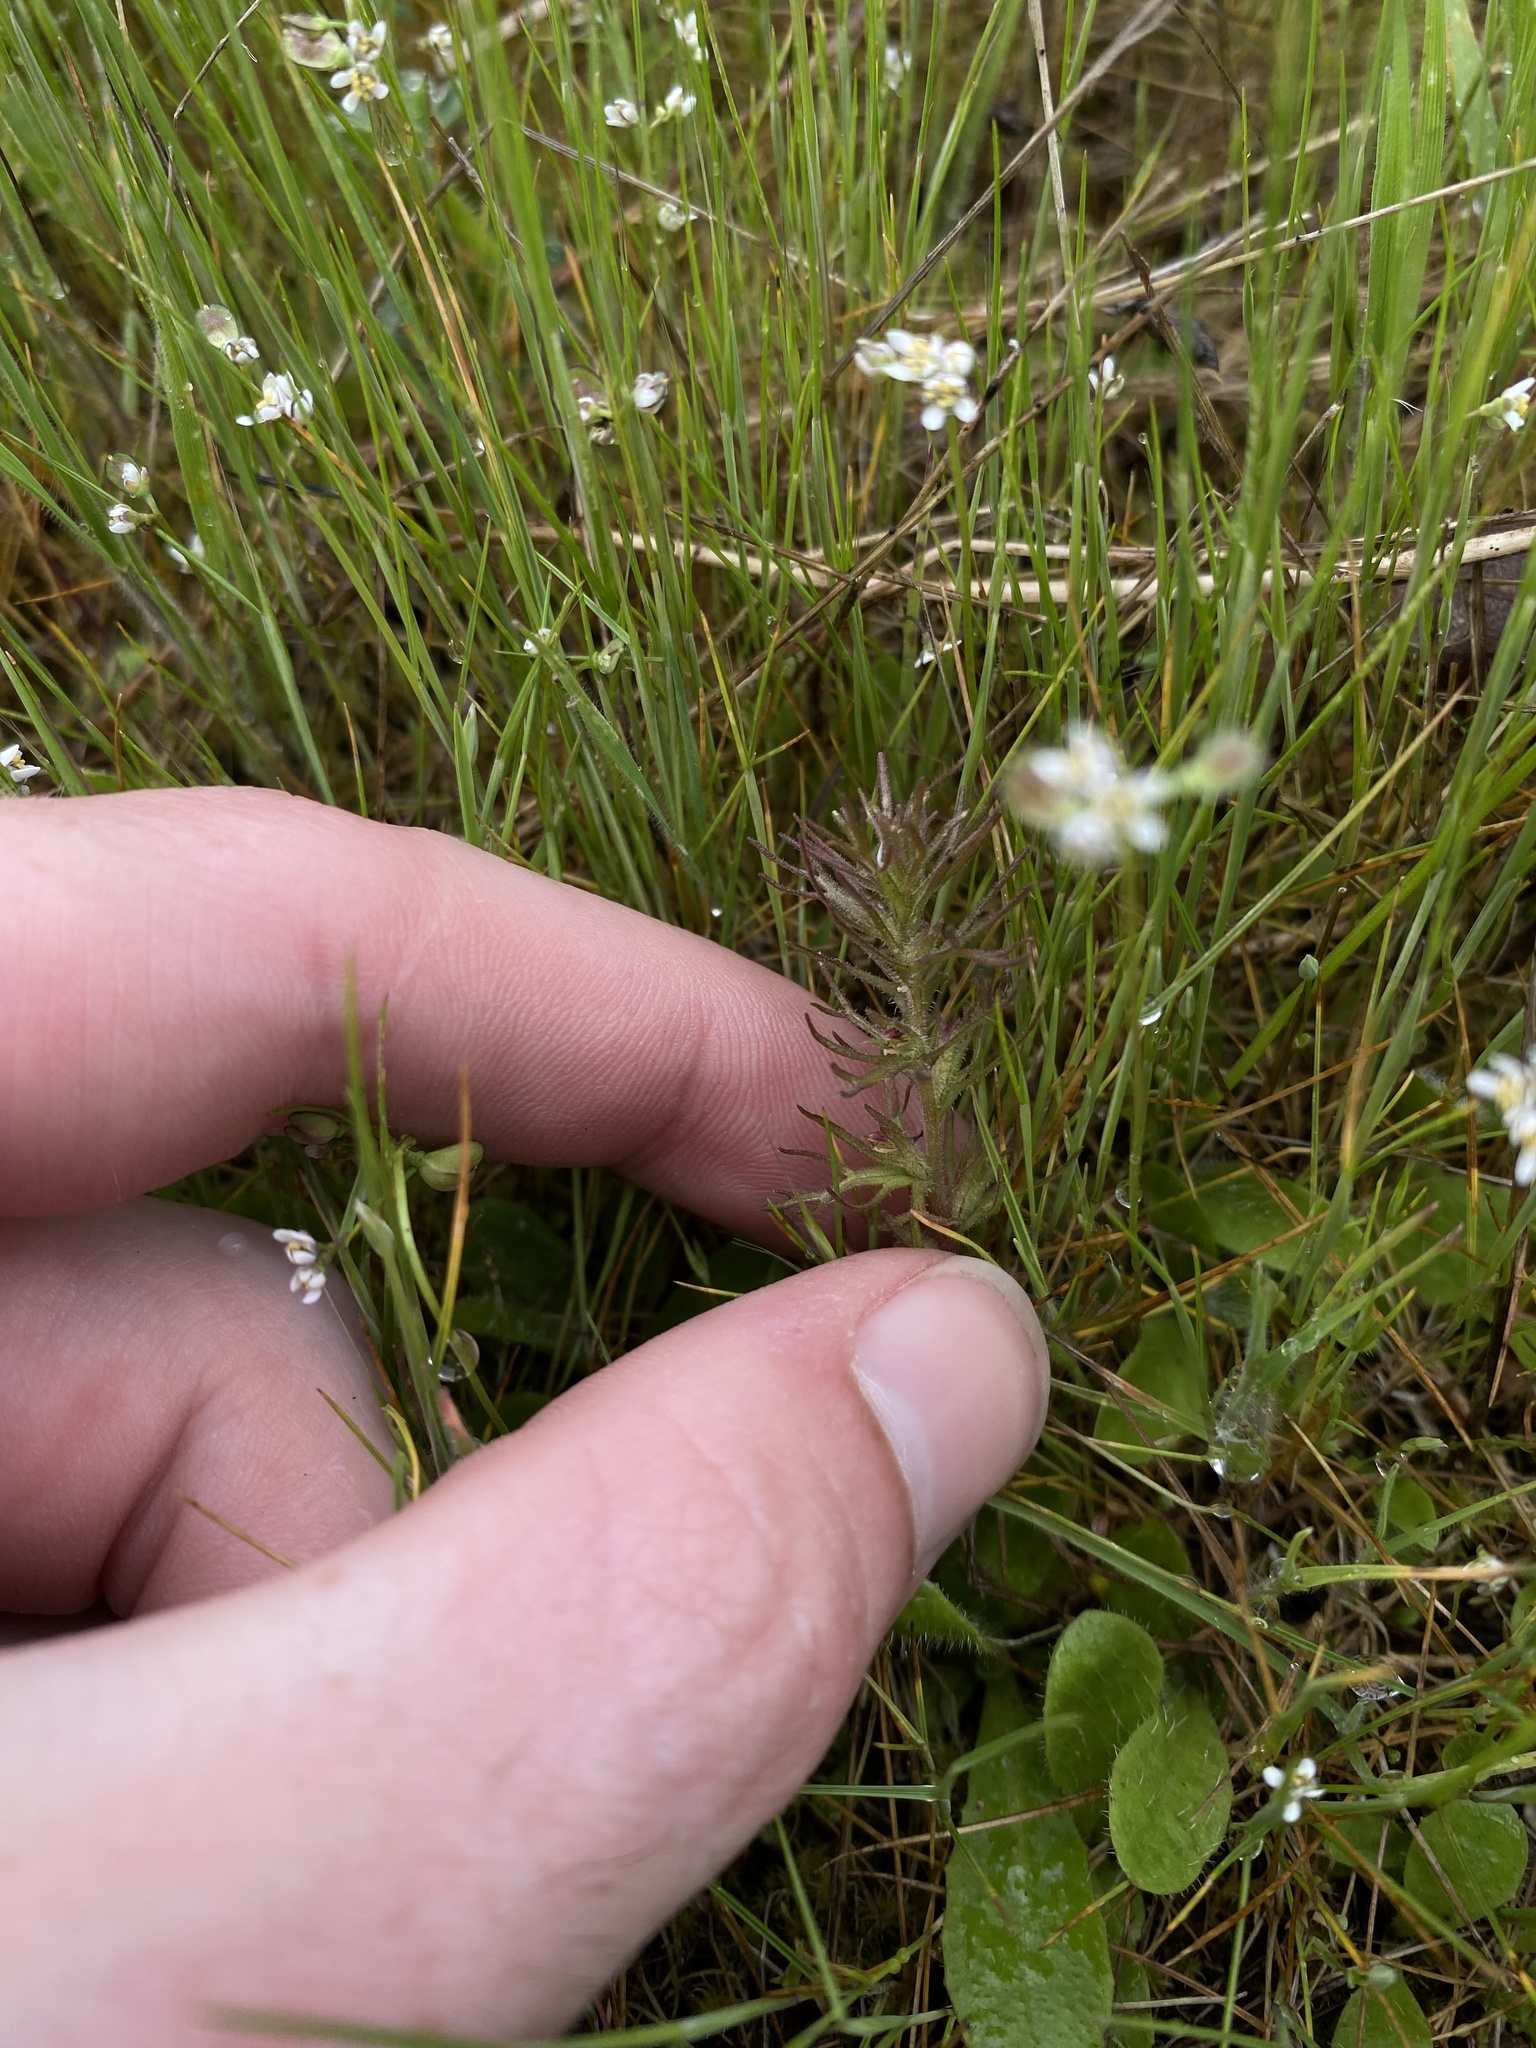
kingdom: Plantae
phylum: Tracheophyta
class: Magnoliopsida
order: Lamiales
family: Orobanchaceae
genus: Triphysaria
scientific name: Triphysaria pusilla
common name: Dwarf false owl-clover
